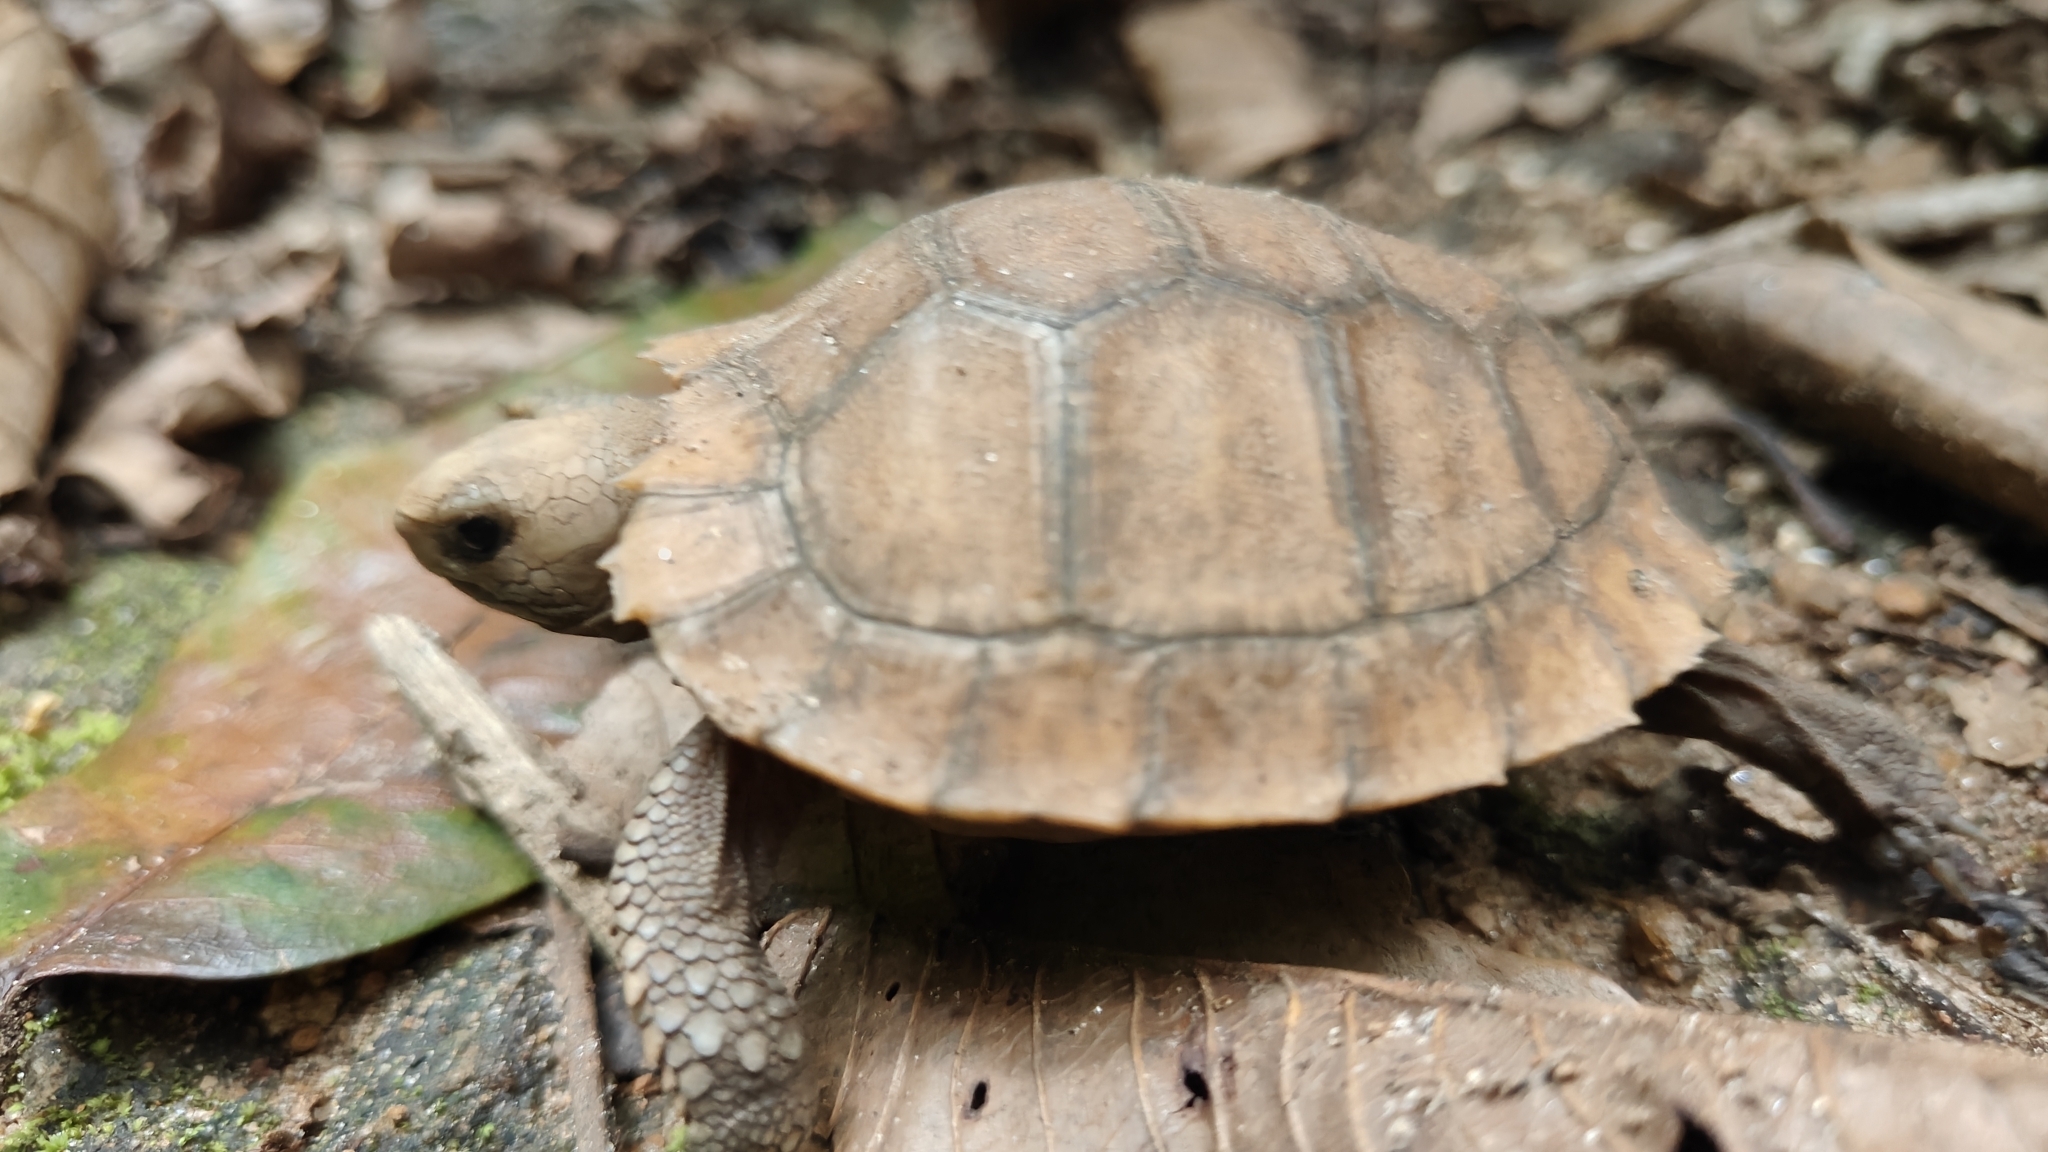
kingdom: Animalia
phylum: Chordata
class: Testudines
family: Testudinidae
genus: Indotestudo
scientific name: Indotestudo travancorica
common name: Travancore tortoise
